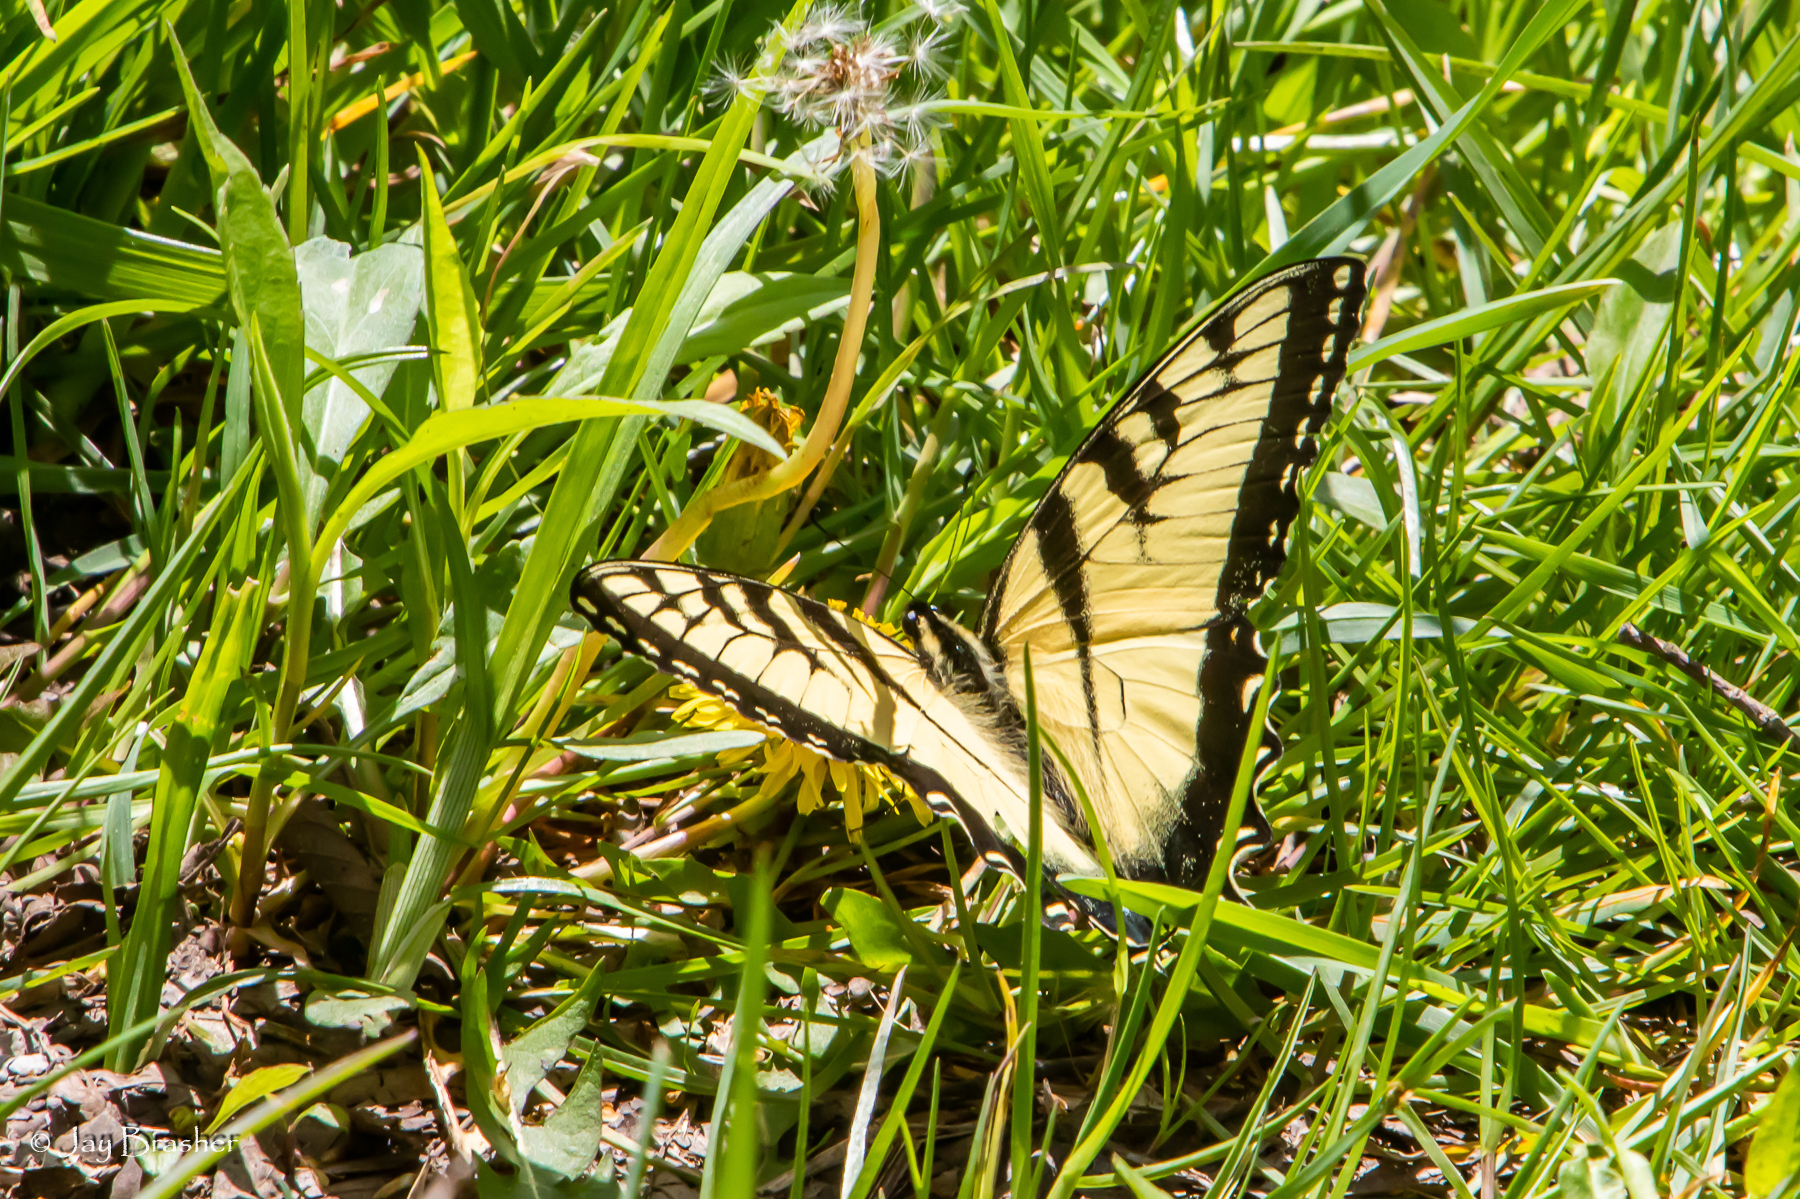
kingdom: Animalia
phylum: Arthropoda
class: Insecta
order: Lepidoptera
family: Papilionidae
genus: Papilio
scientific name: Papilio glaucus
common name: Tiger swallowtail
